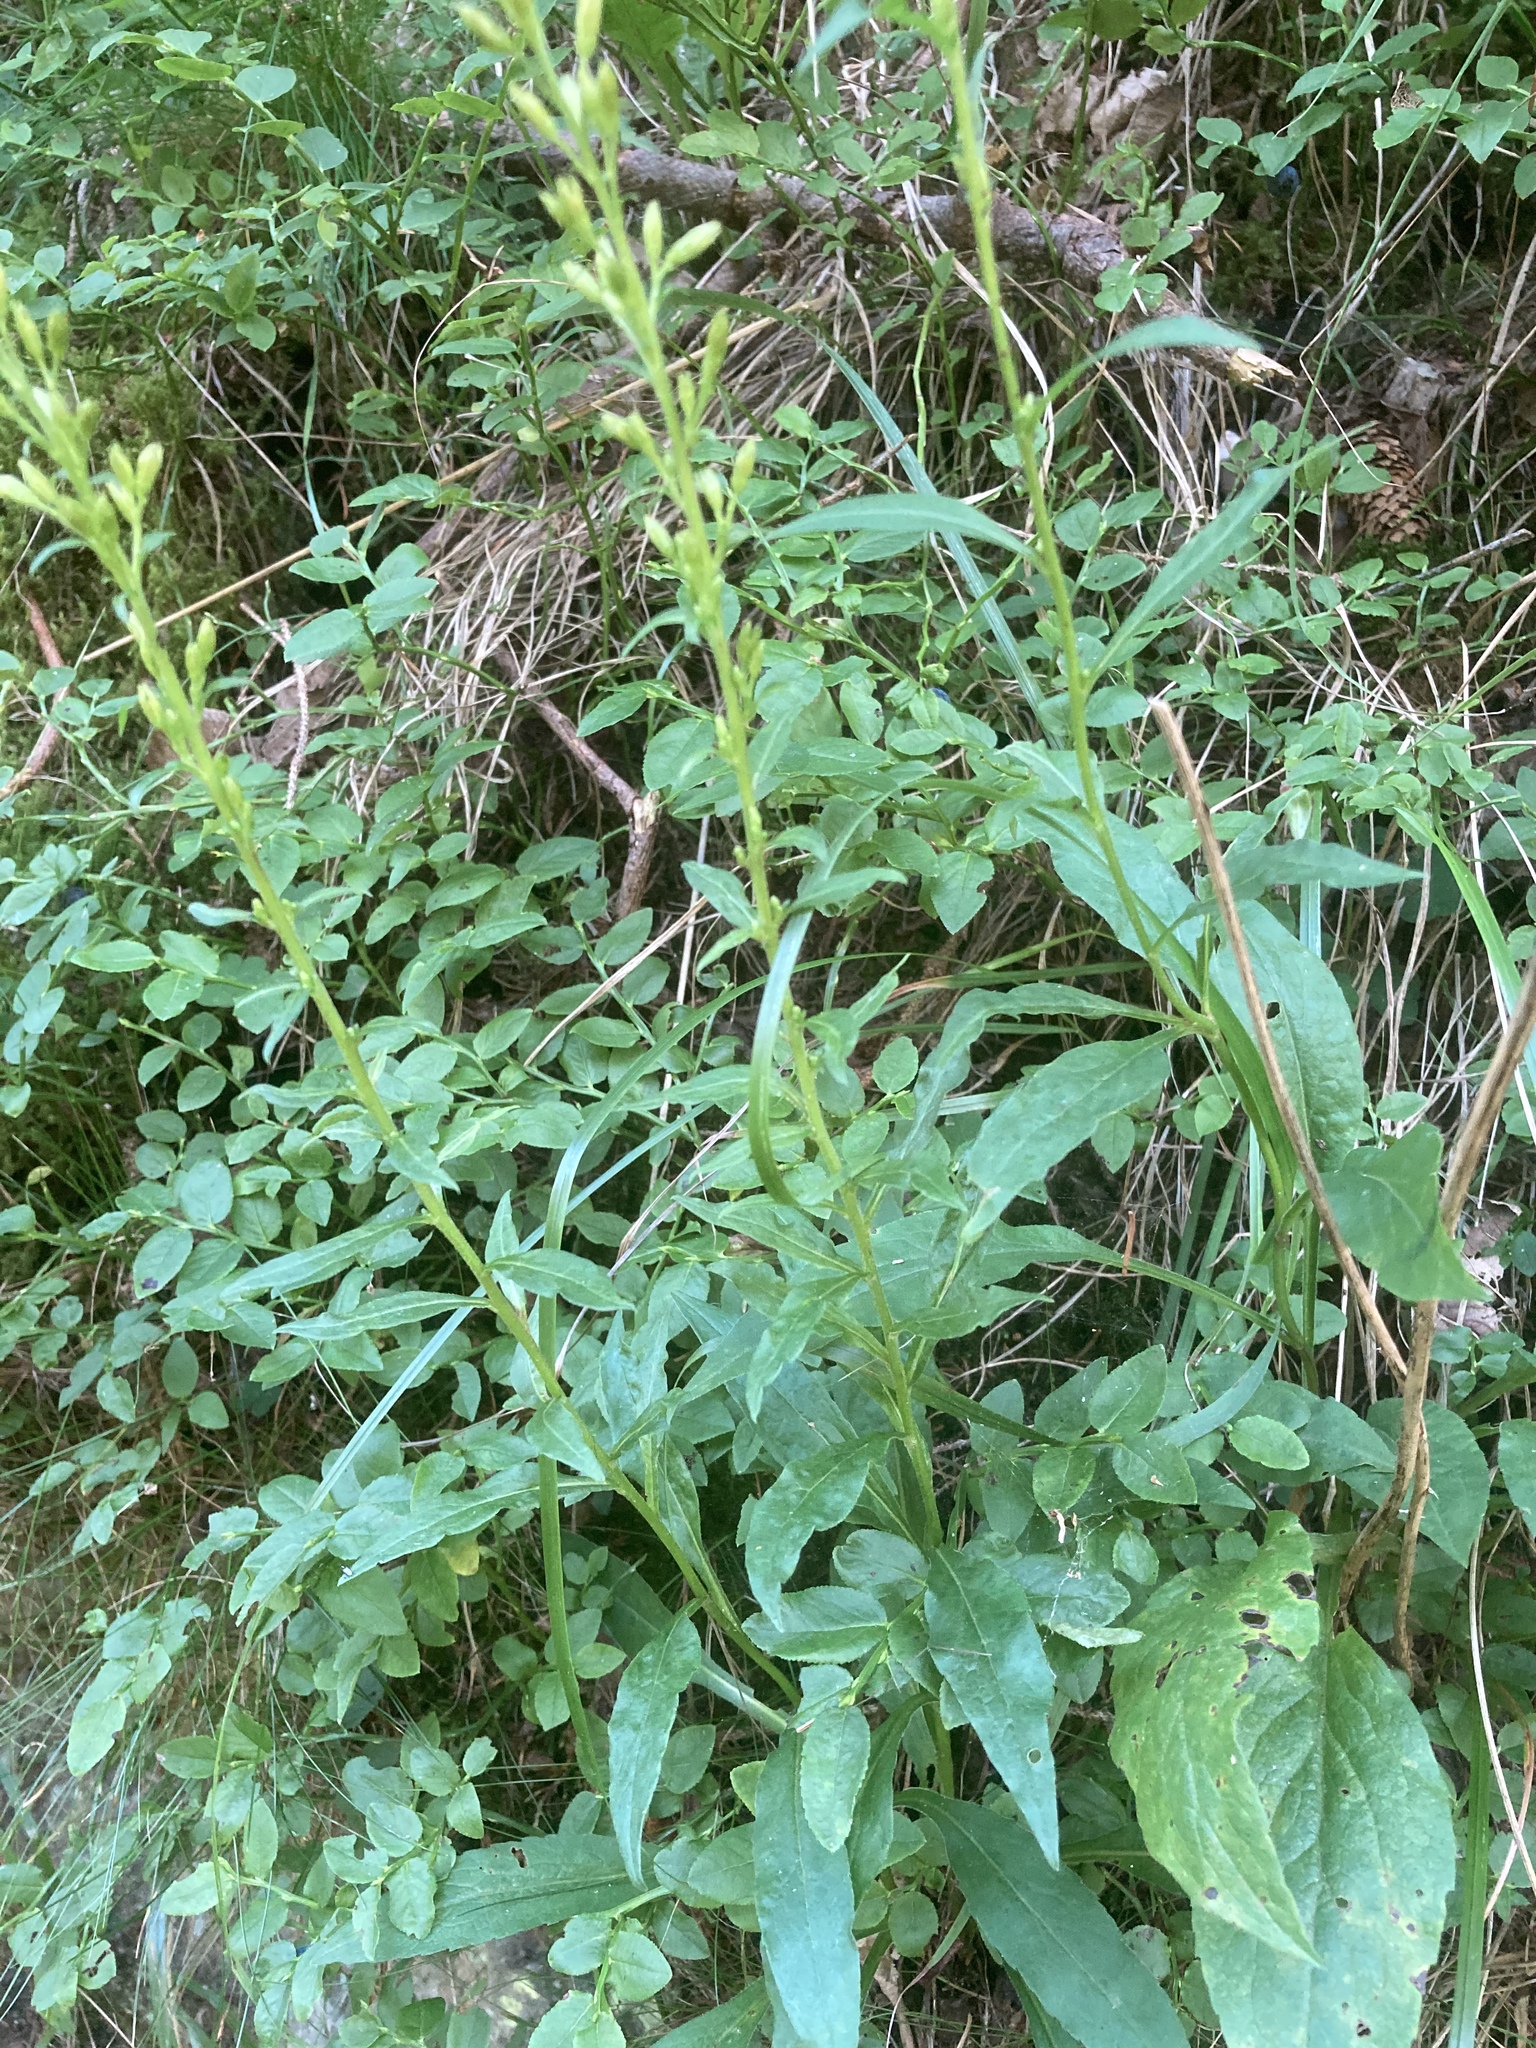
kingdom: Plantae
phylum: Tracheophyta
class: Magnoliopsida
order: Asterales
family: Asteraceae
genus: Solidago
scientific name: Solidago virgaurea
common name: Goldenrod
